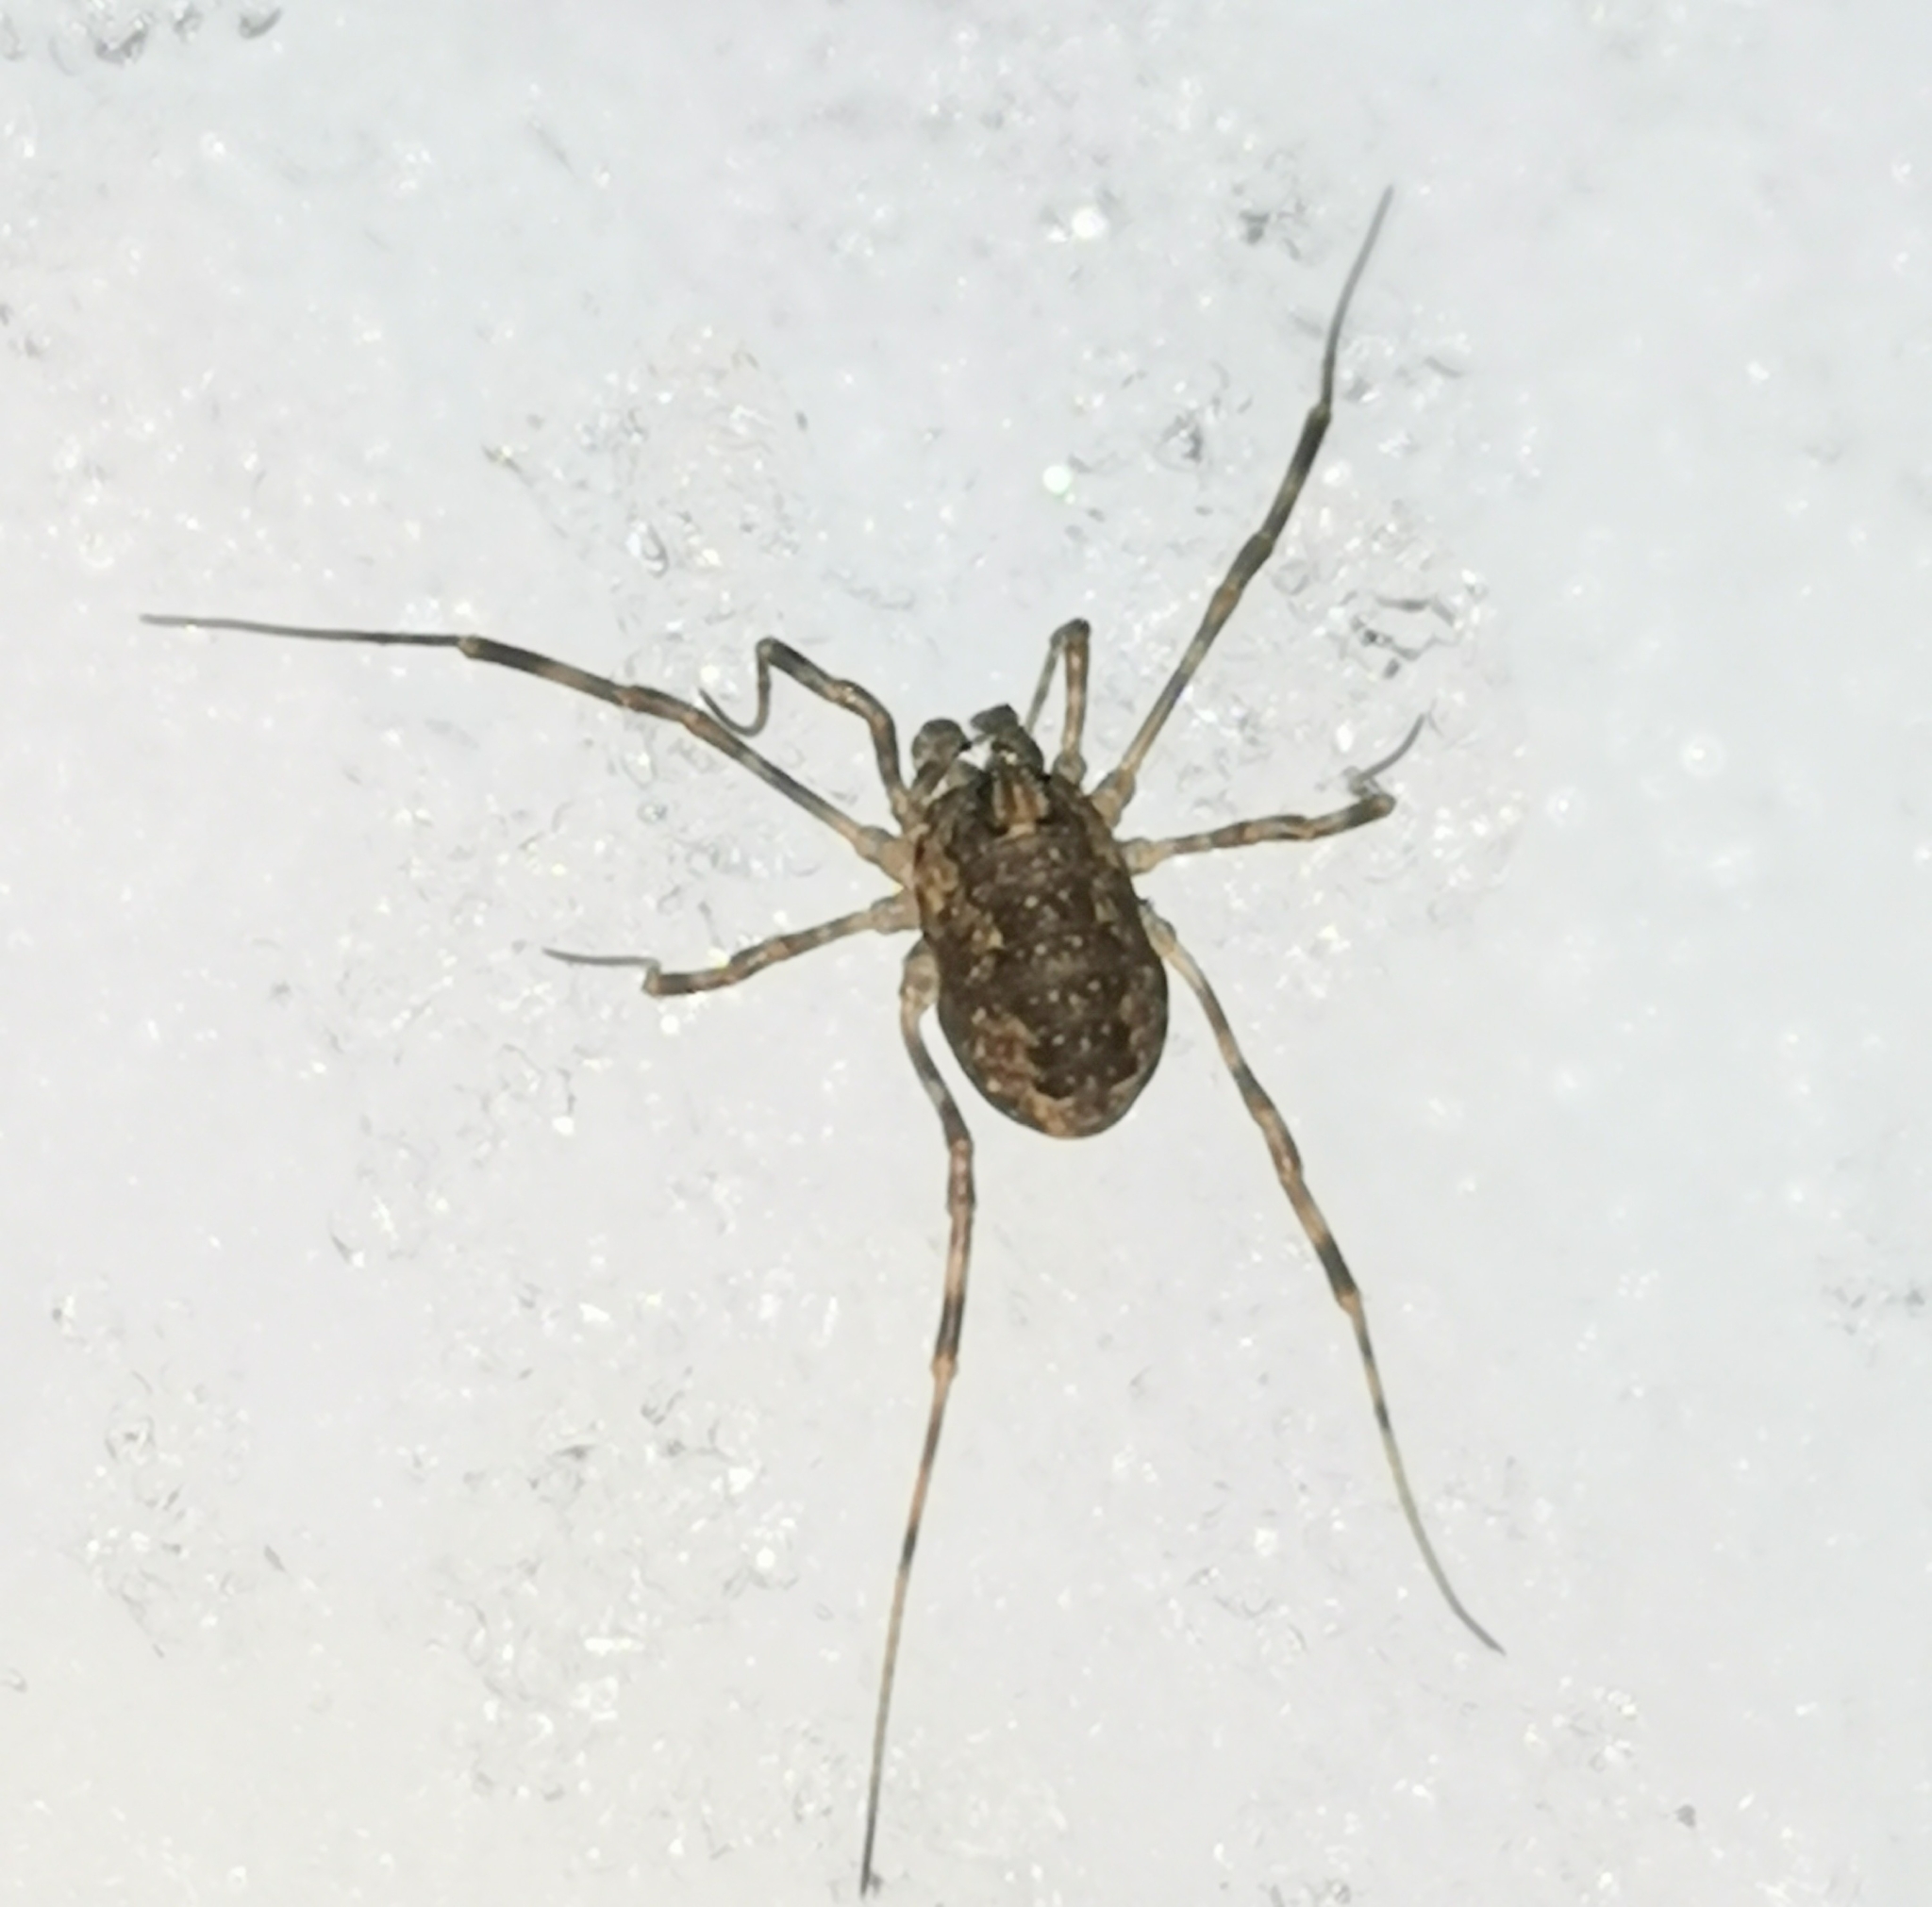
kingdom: Animalia
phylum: Arthropoda
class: Arachnida
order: Opiliones
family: Phalangiidae
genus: Rilaena
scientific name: Rilaena triangularis
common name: Spring harvestman
